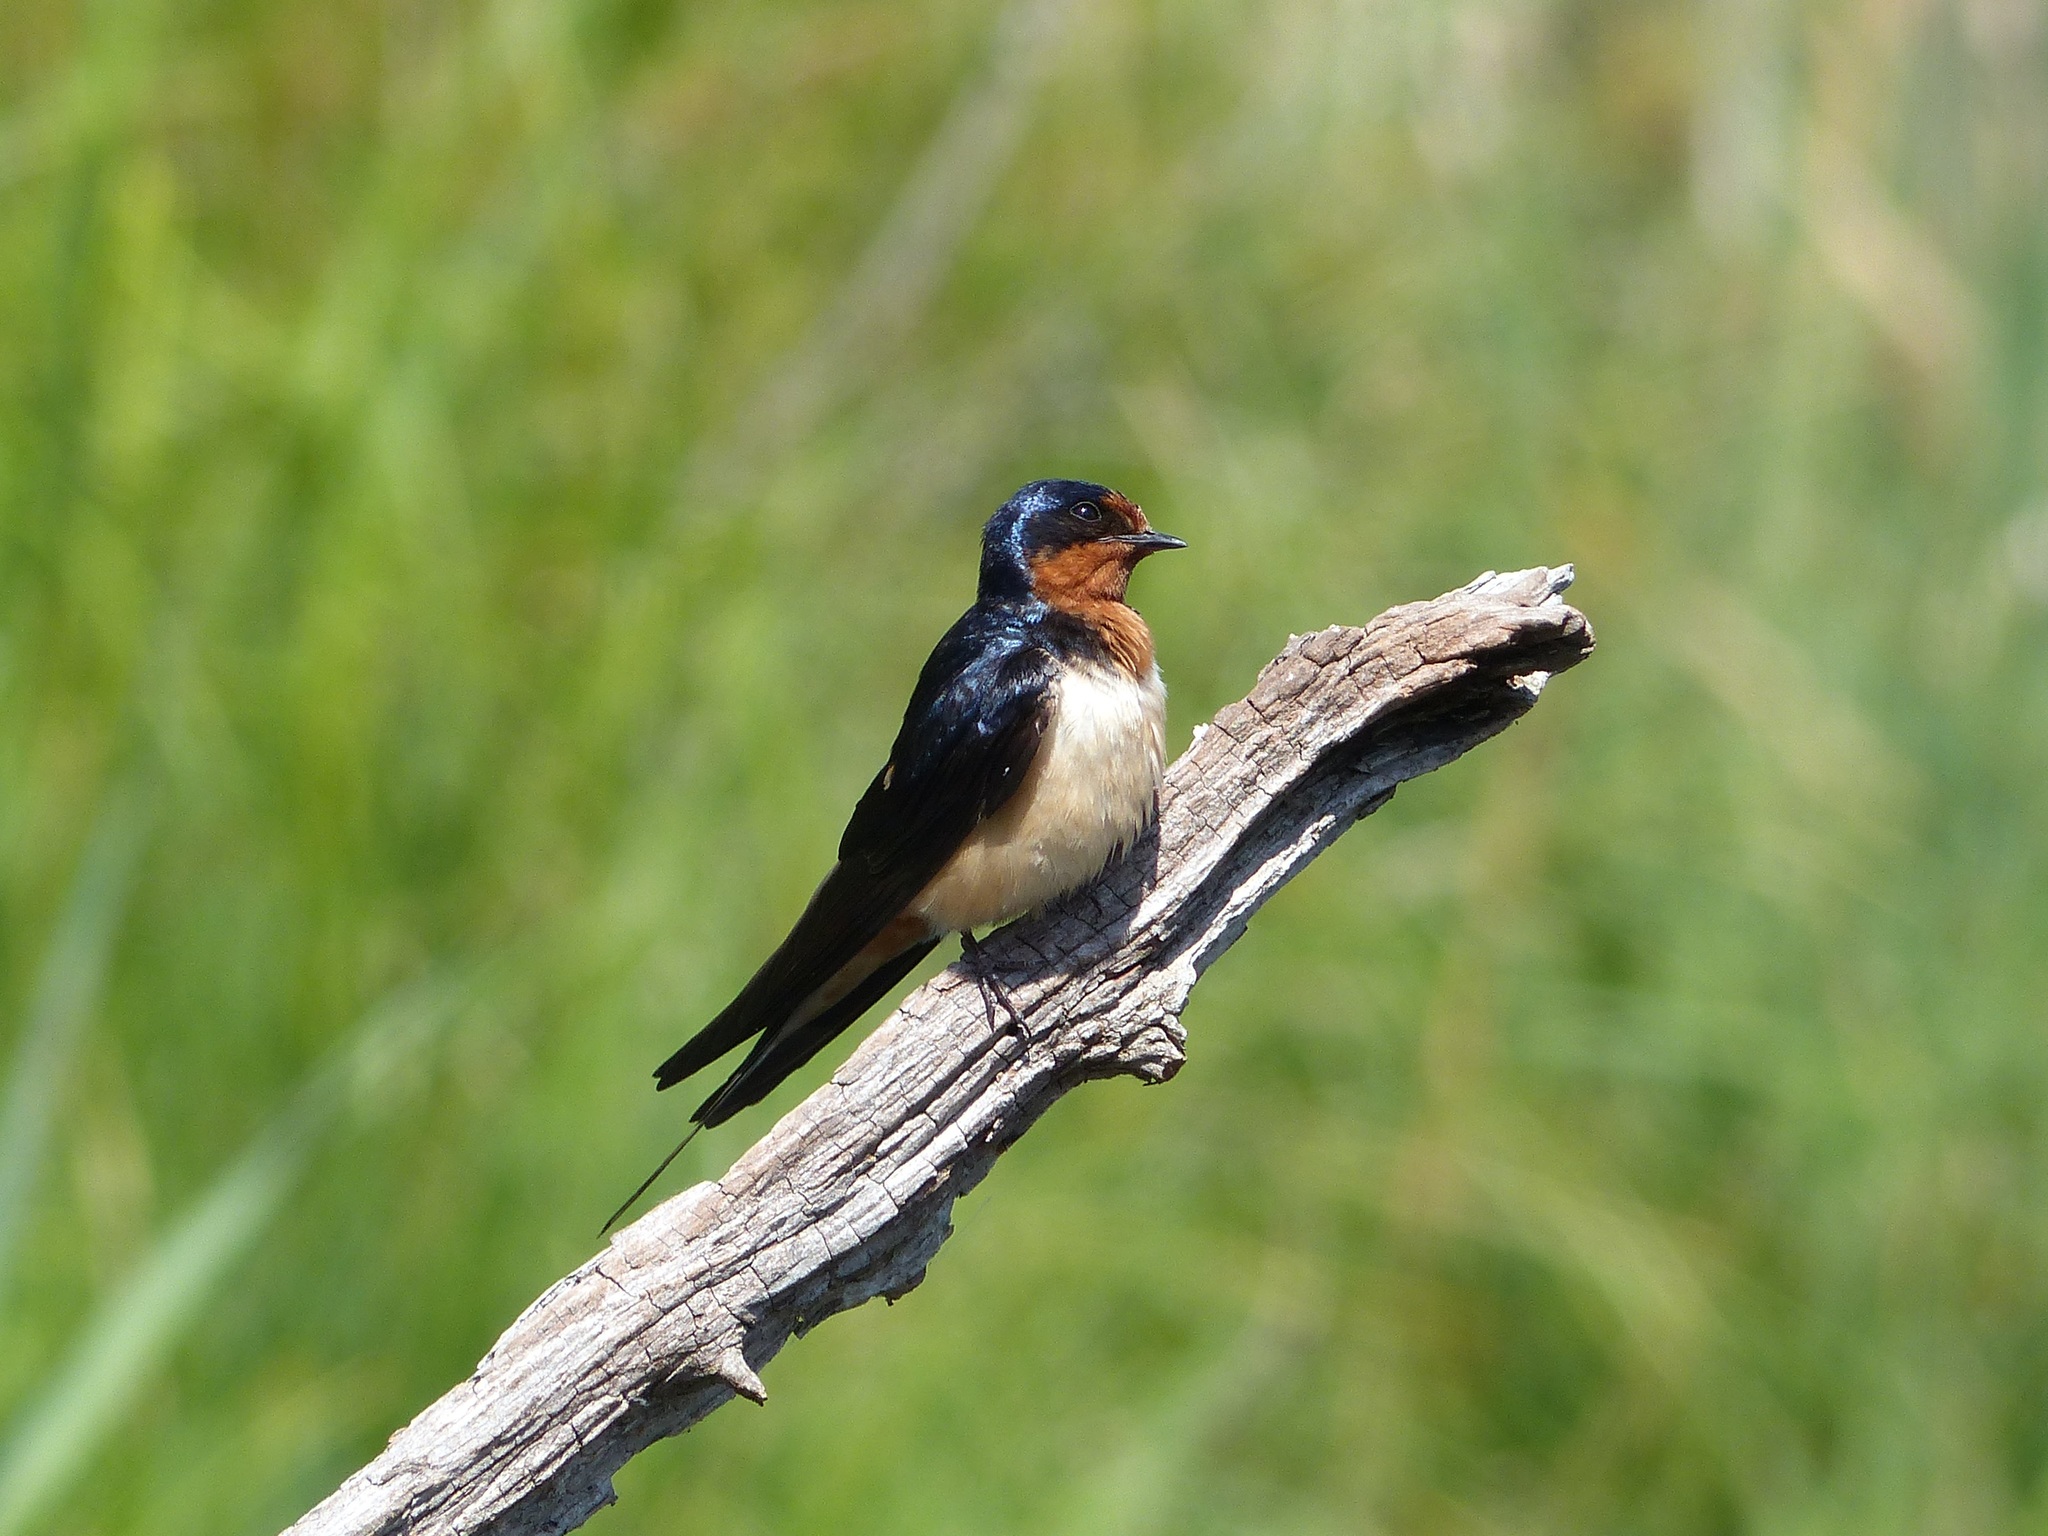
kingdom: Animalia
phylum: Chordata
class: Aves
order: Passeriformes
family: Hirundinidae
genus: Hirundo
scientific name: Hirundo rustica
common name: Barn swallow
